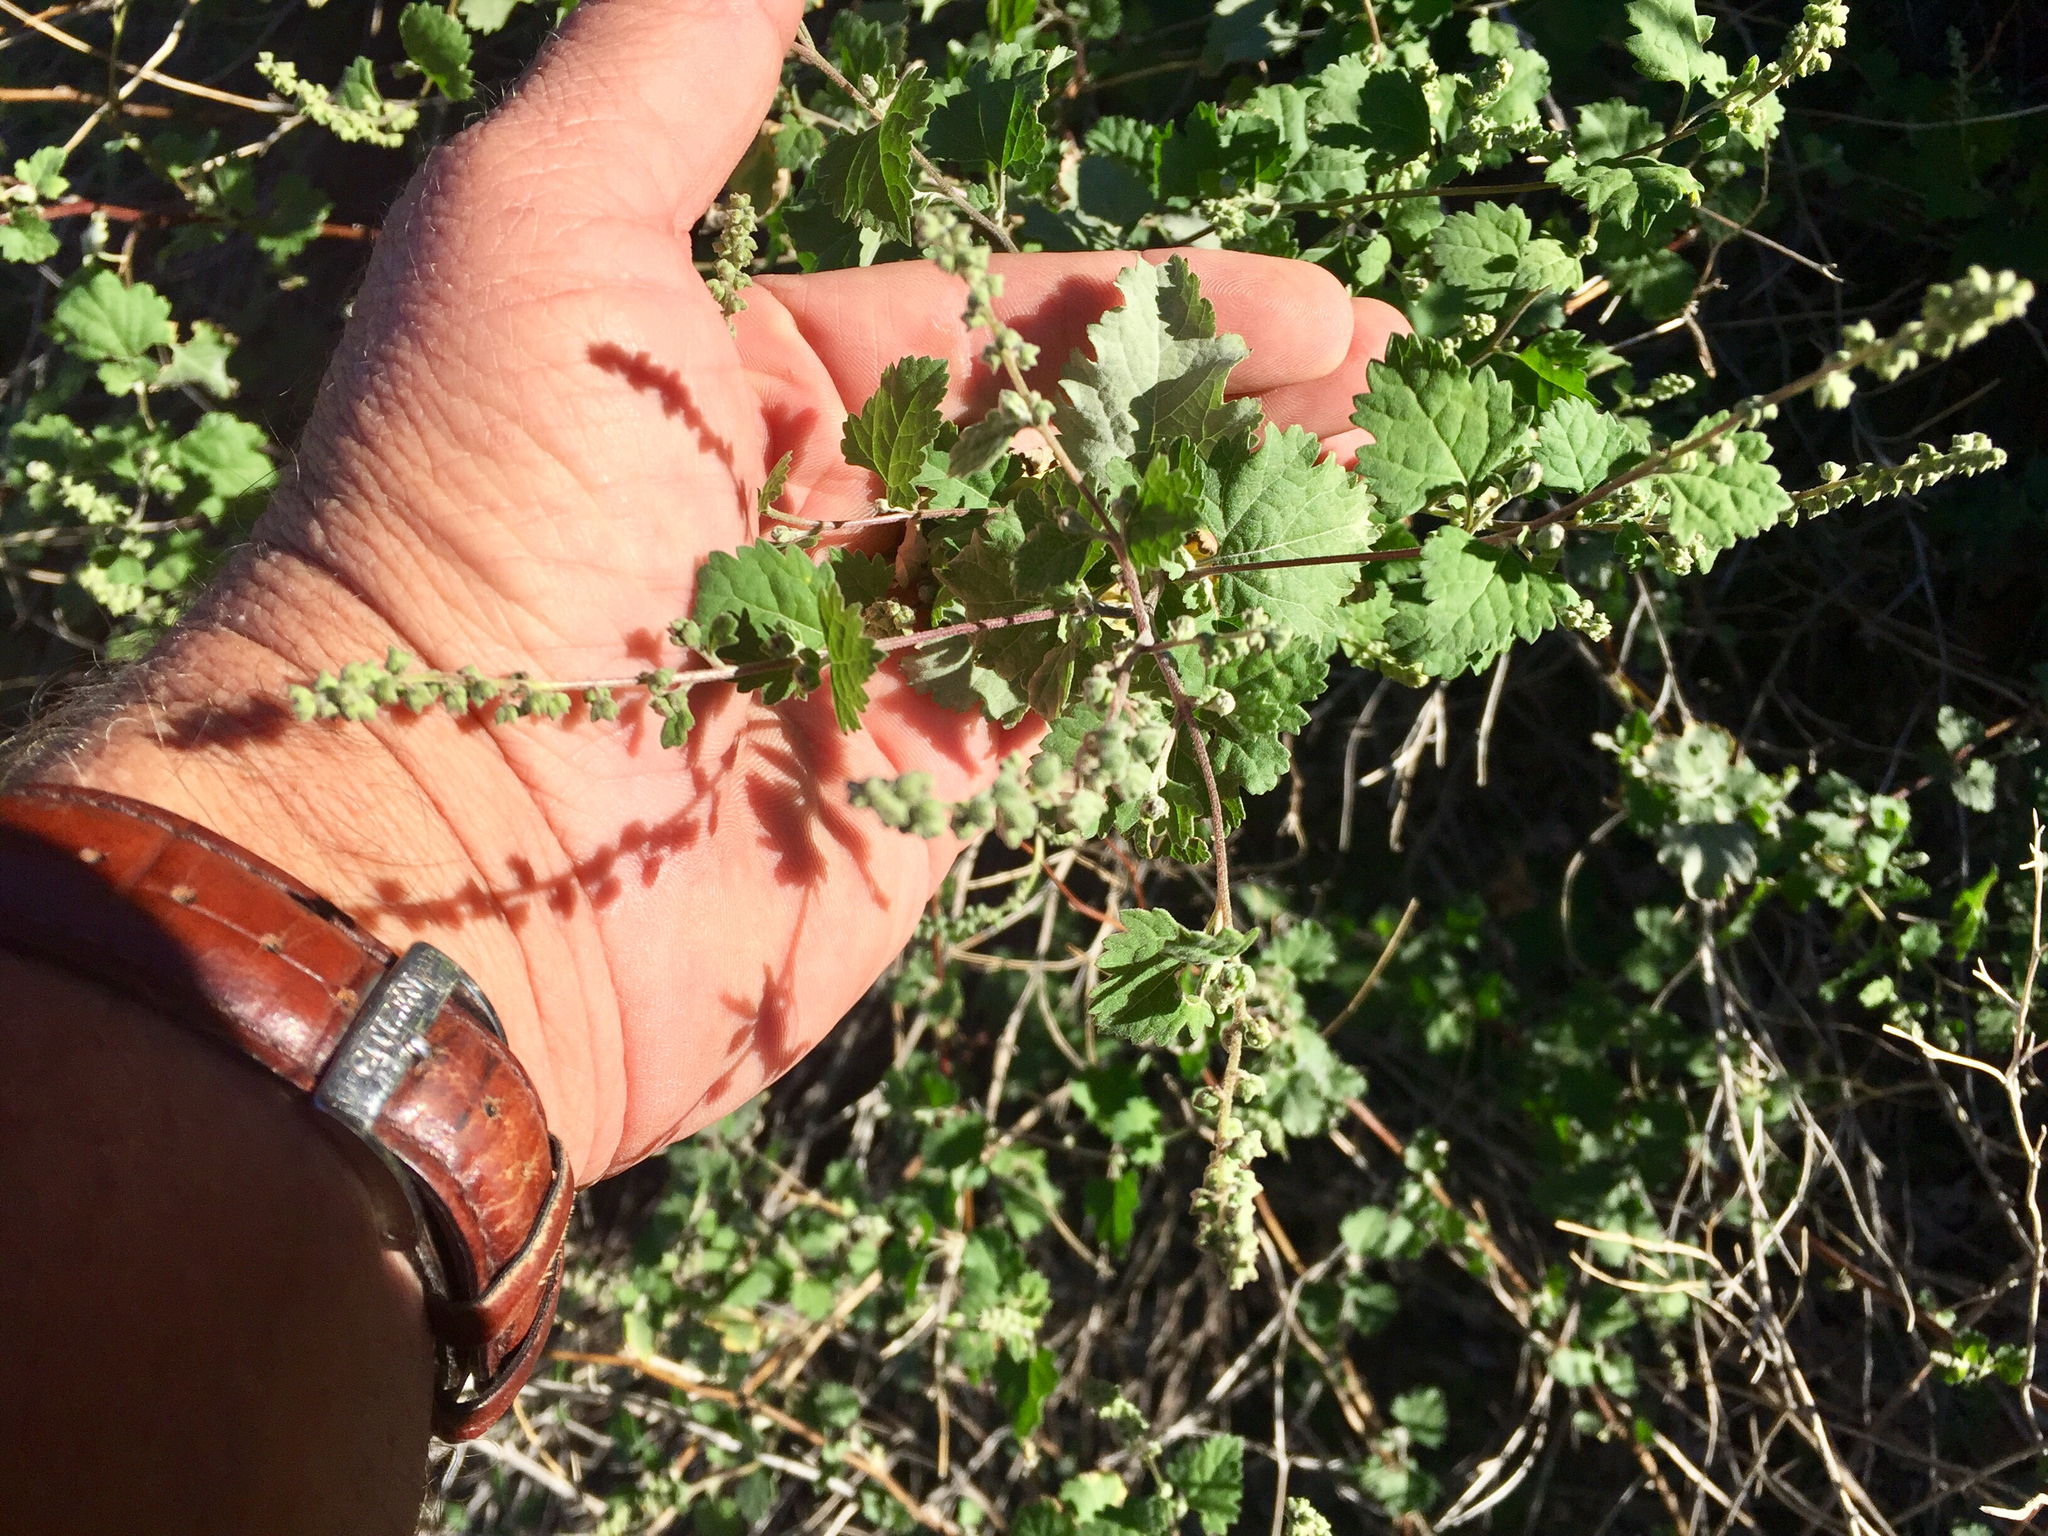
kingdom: Plantae
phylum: Tracheophyta
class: Magnoliopsida
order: Asterales
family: Asteraceae
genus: Ambrosia
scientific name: Ambrosia cordifolia
